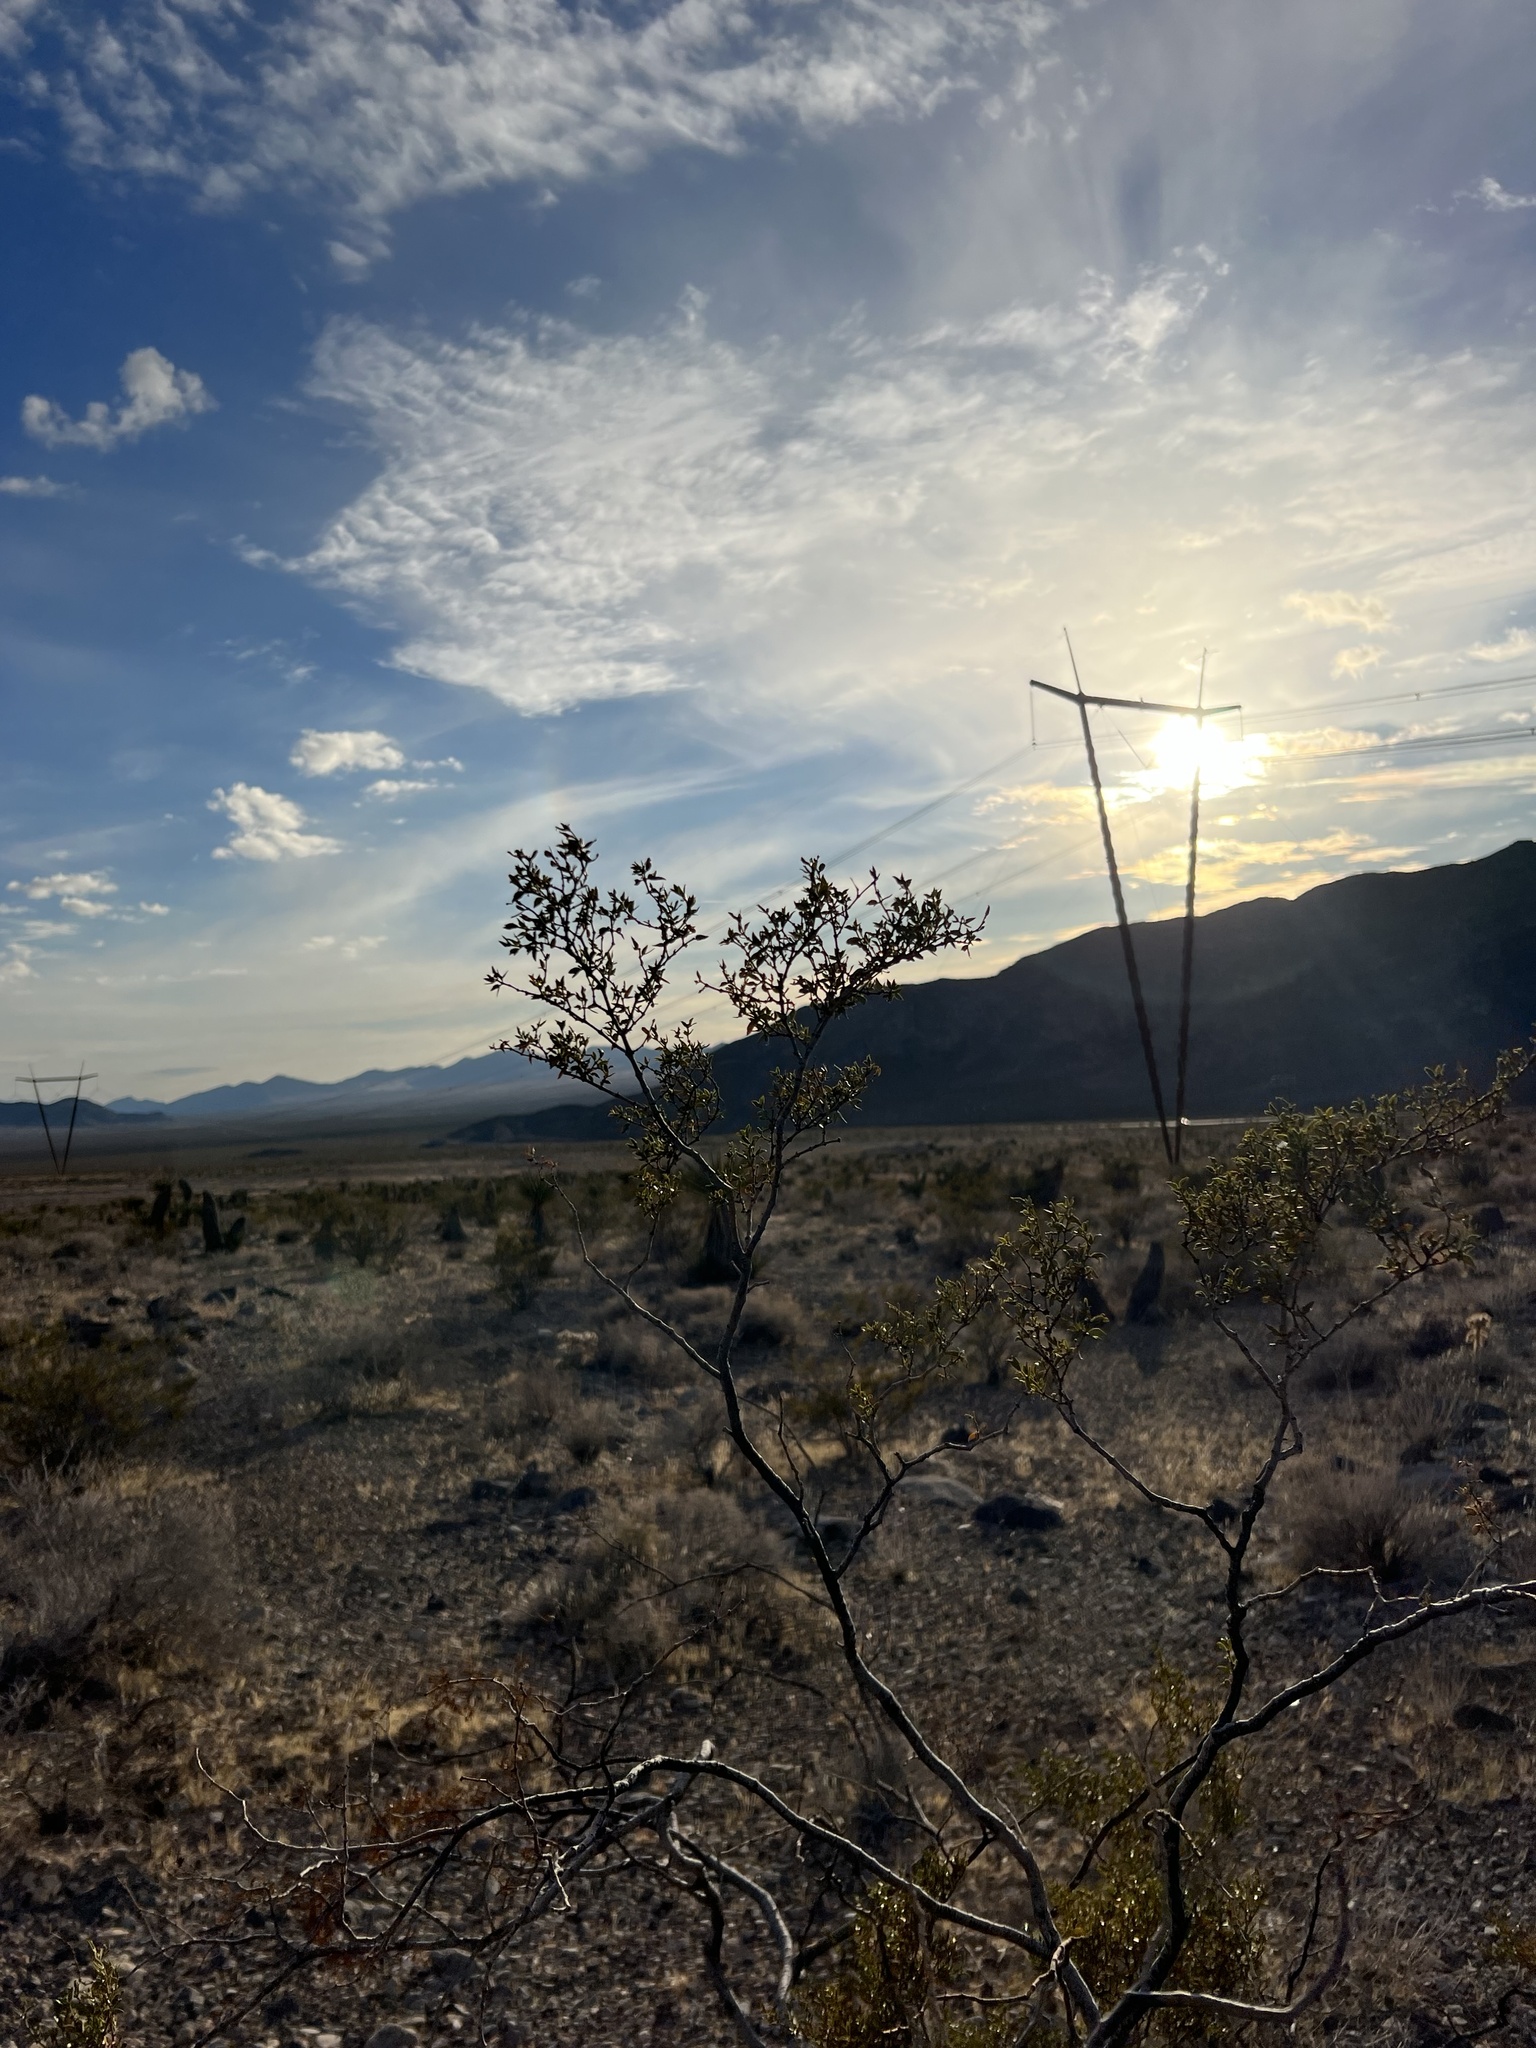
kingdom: Plantae
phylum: Tracheophyta
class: Magnoliopsida
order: Zygophyllales
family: Zygophyllaceae
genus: Larrea
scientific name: Larrea tridentata
